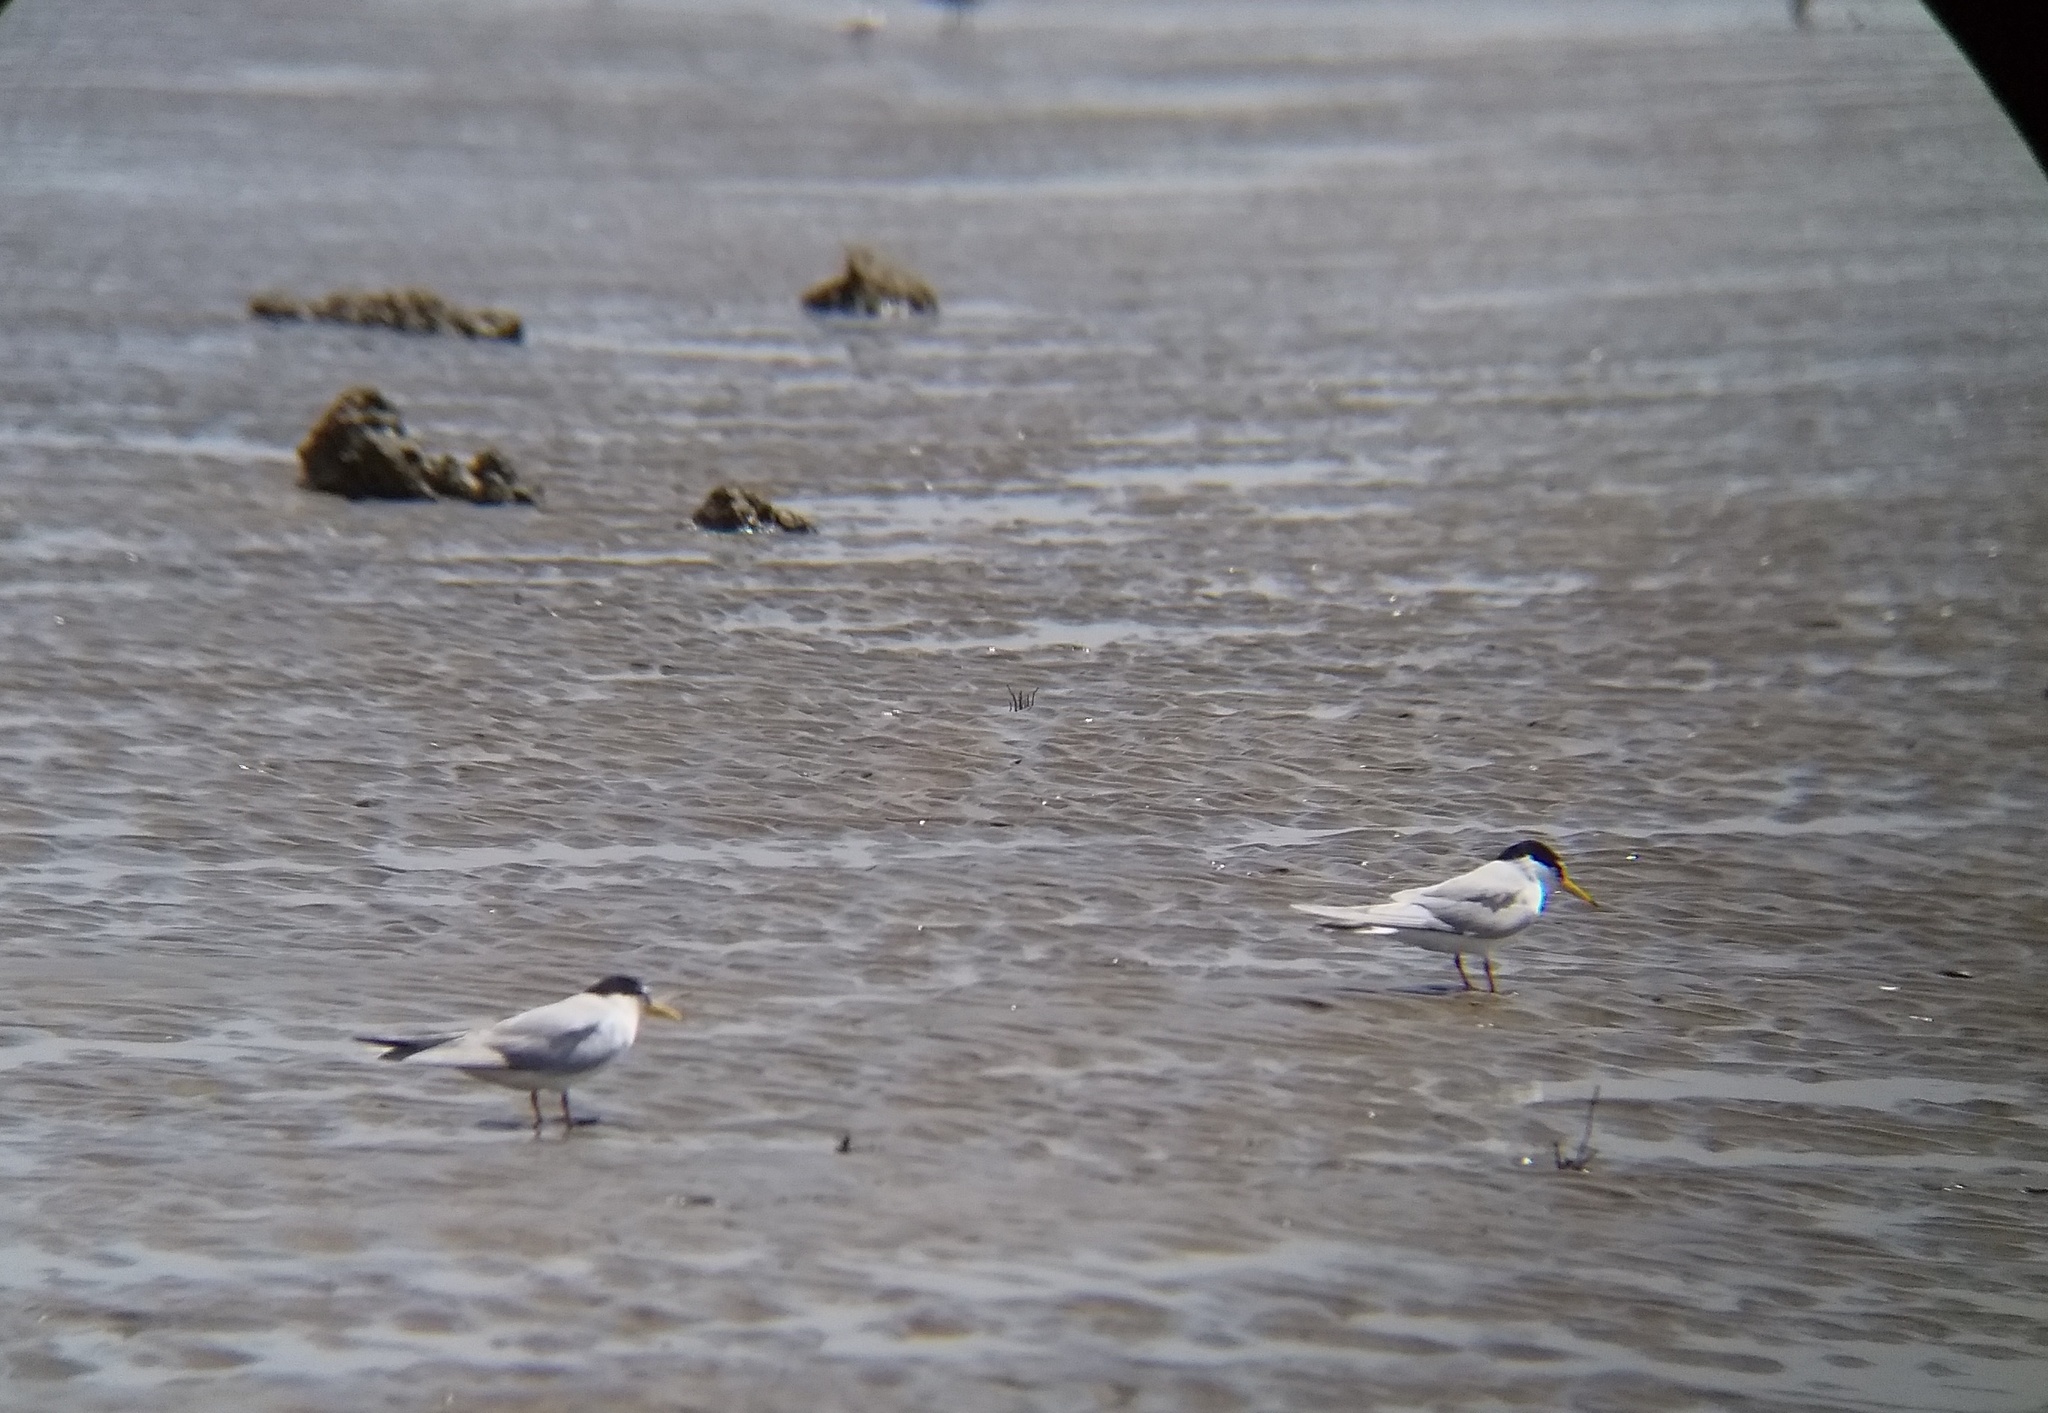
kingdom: Animalia
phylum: Chordata
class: Aves
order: Charadriiformes
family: Laridae
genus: Sternula
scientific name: Sternula albifrons
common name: Little tern
